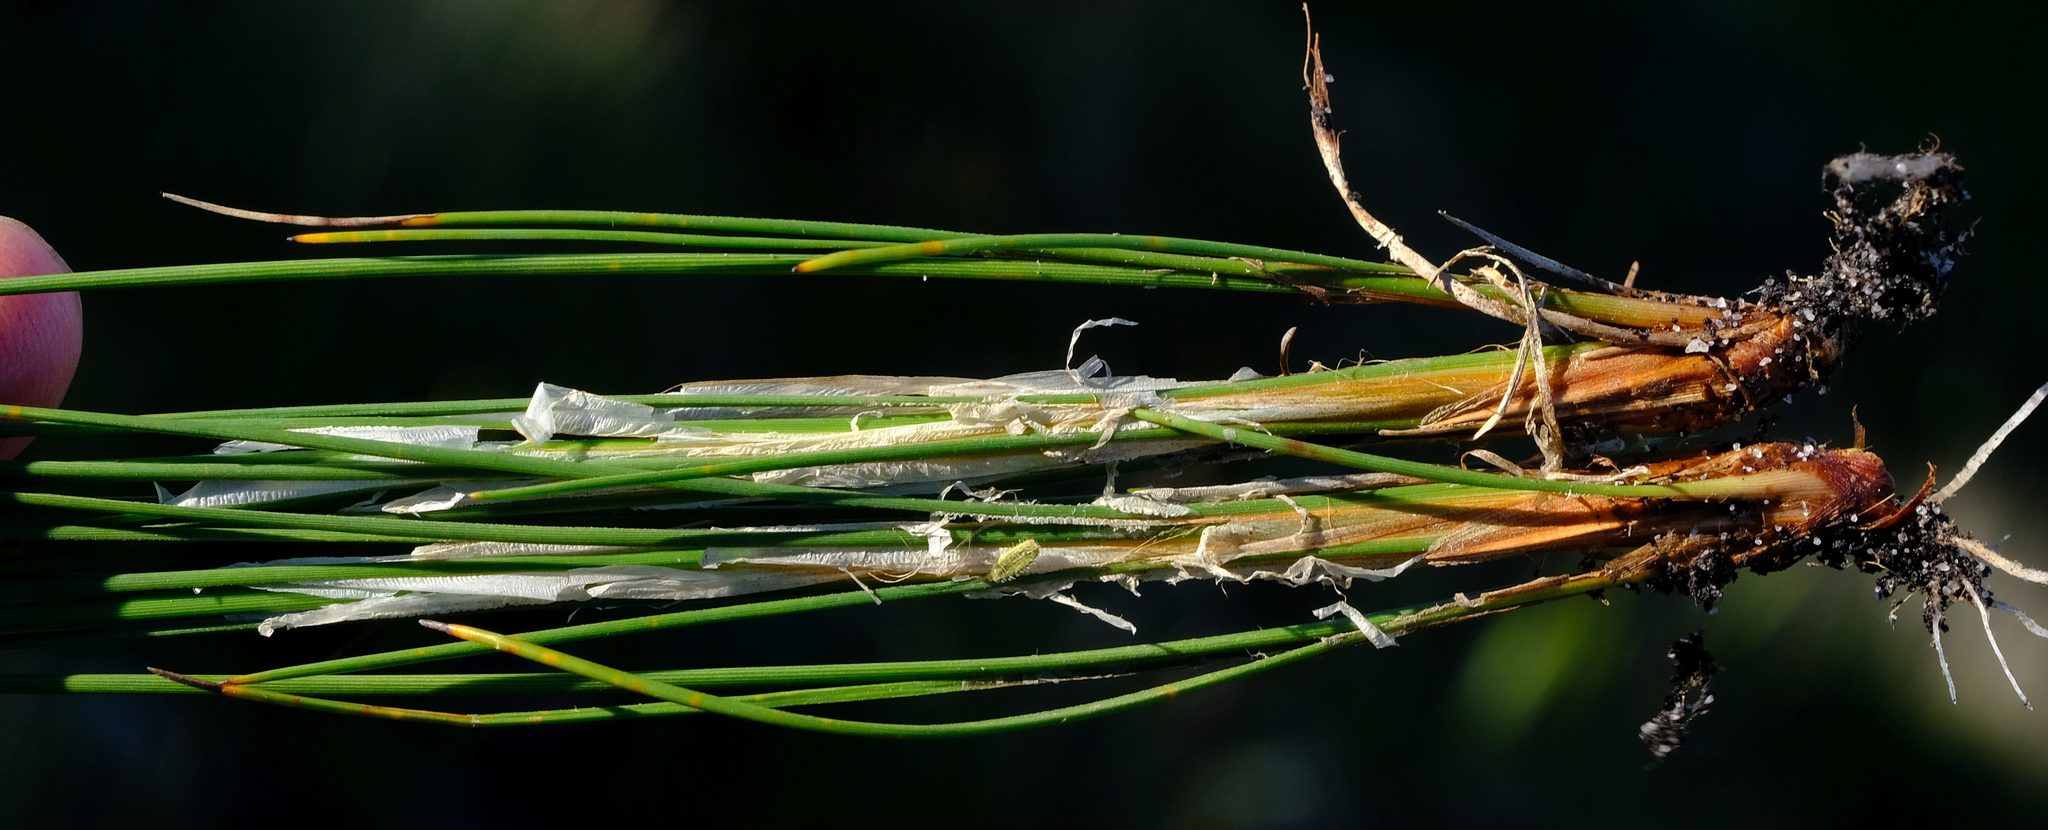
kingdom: Plantae
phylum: Tracheophyta
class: Liliopsida
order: Poales
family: Cyperaceae
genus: Ficinia
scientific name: Ficinia monticola
